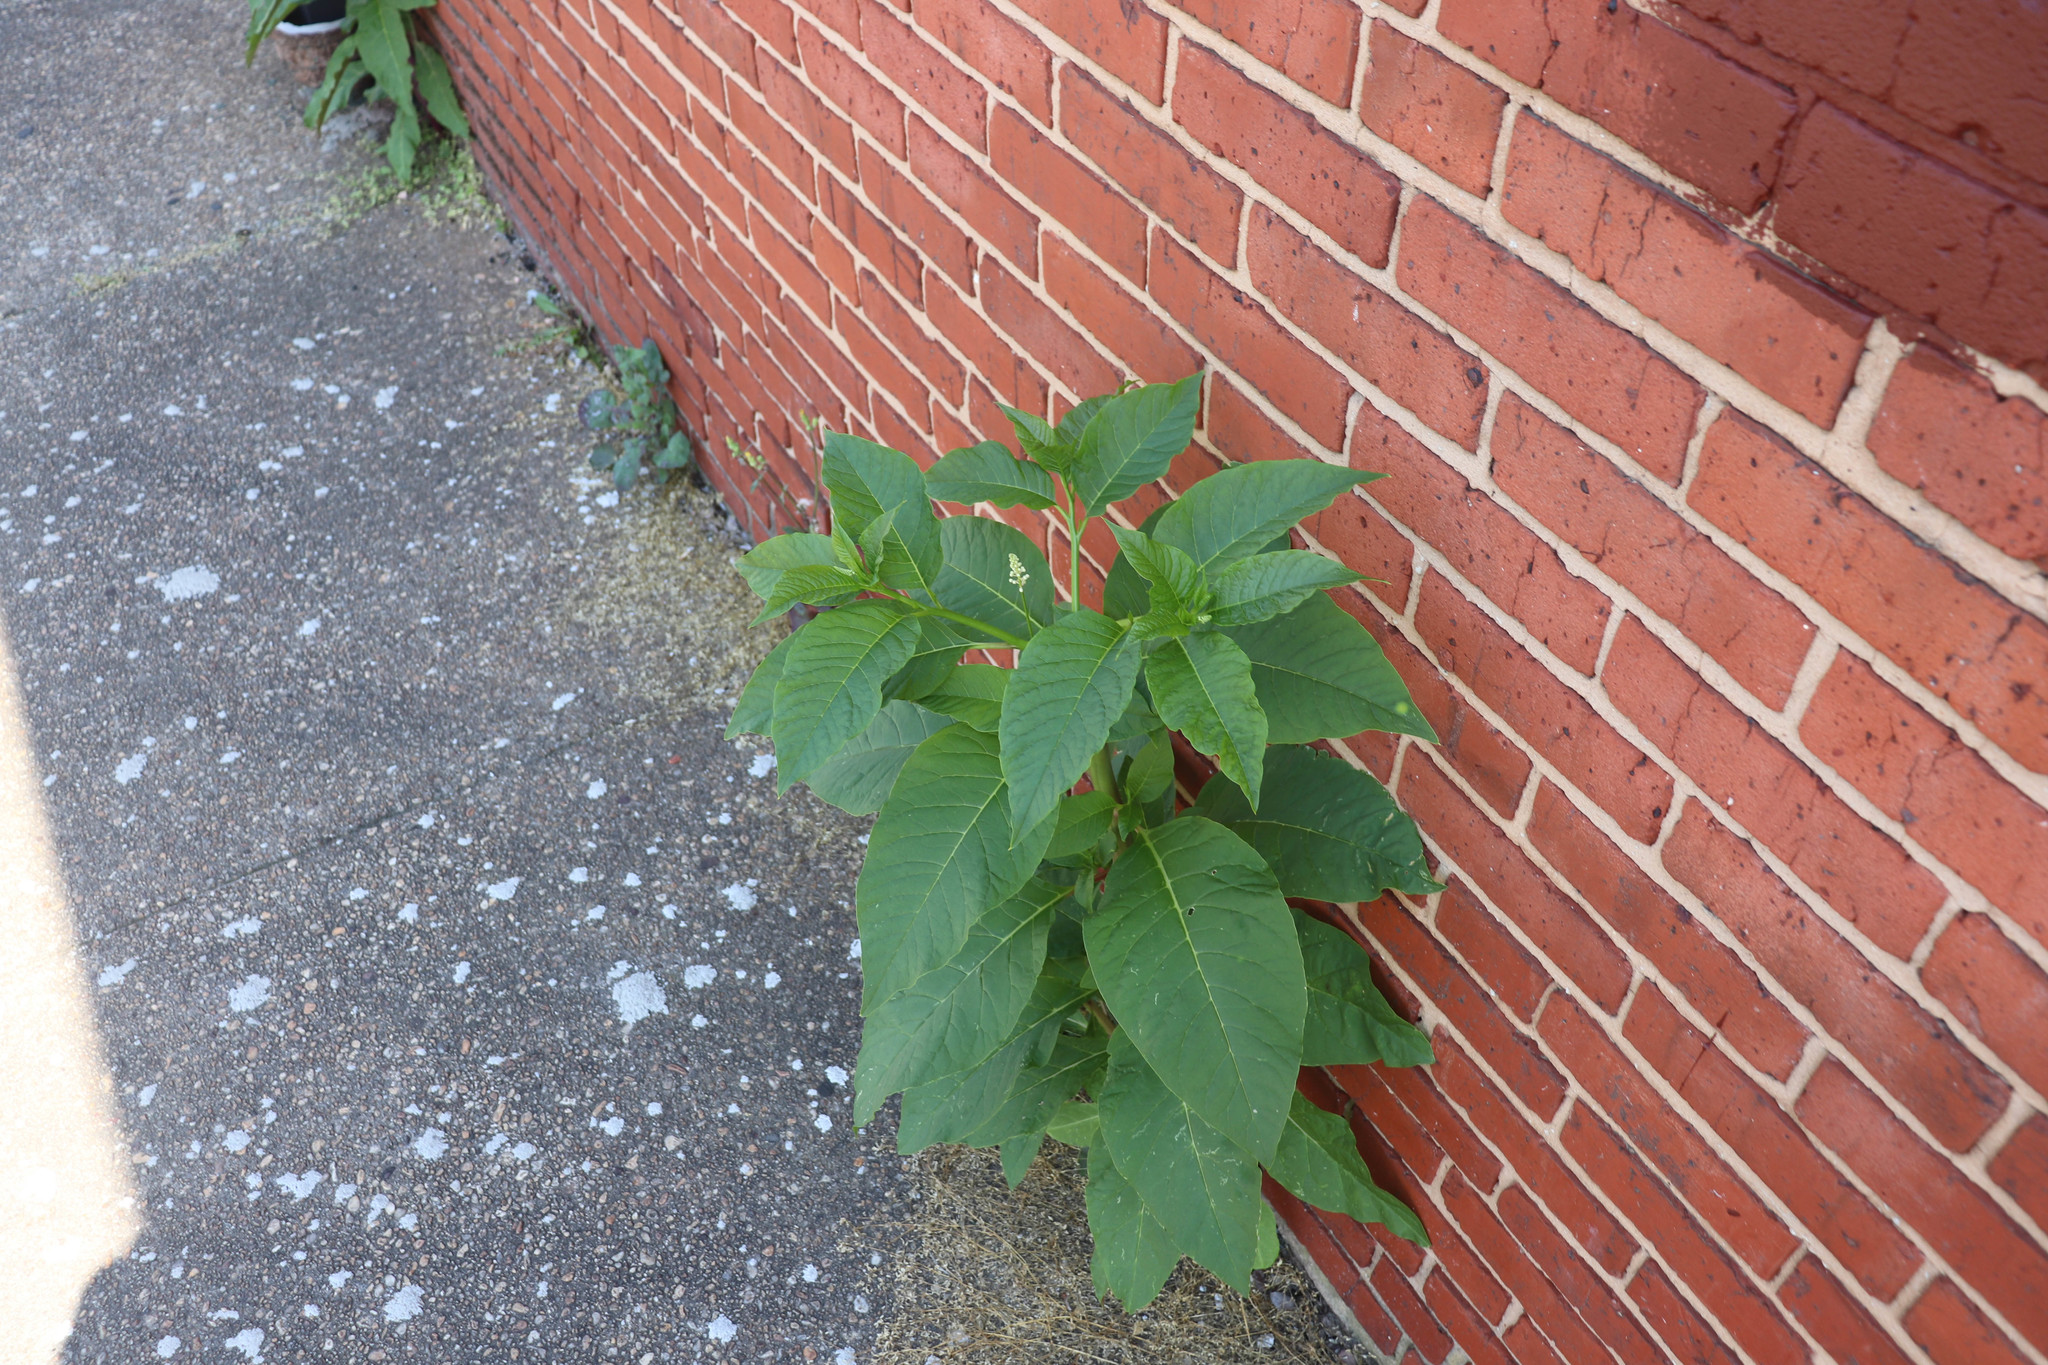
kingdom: Plantae
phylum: Tracheophyta
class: Magnoliopsida
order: Caryophyllales
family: Phytolaccaceae
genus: Phytolacca
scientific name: Phytolacca americana
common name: American pokeweed
